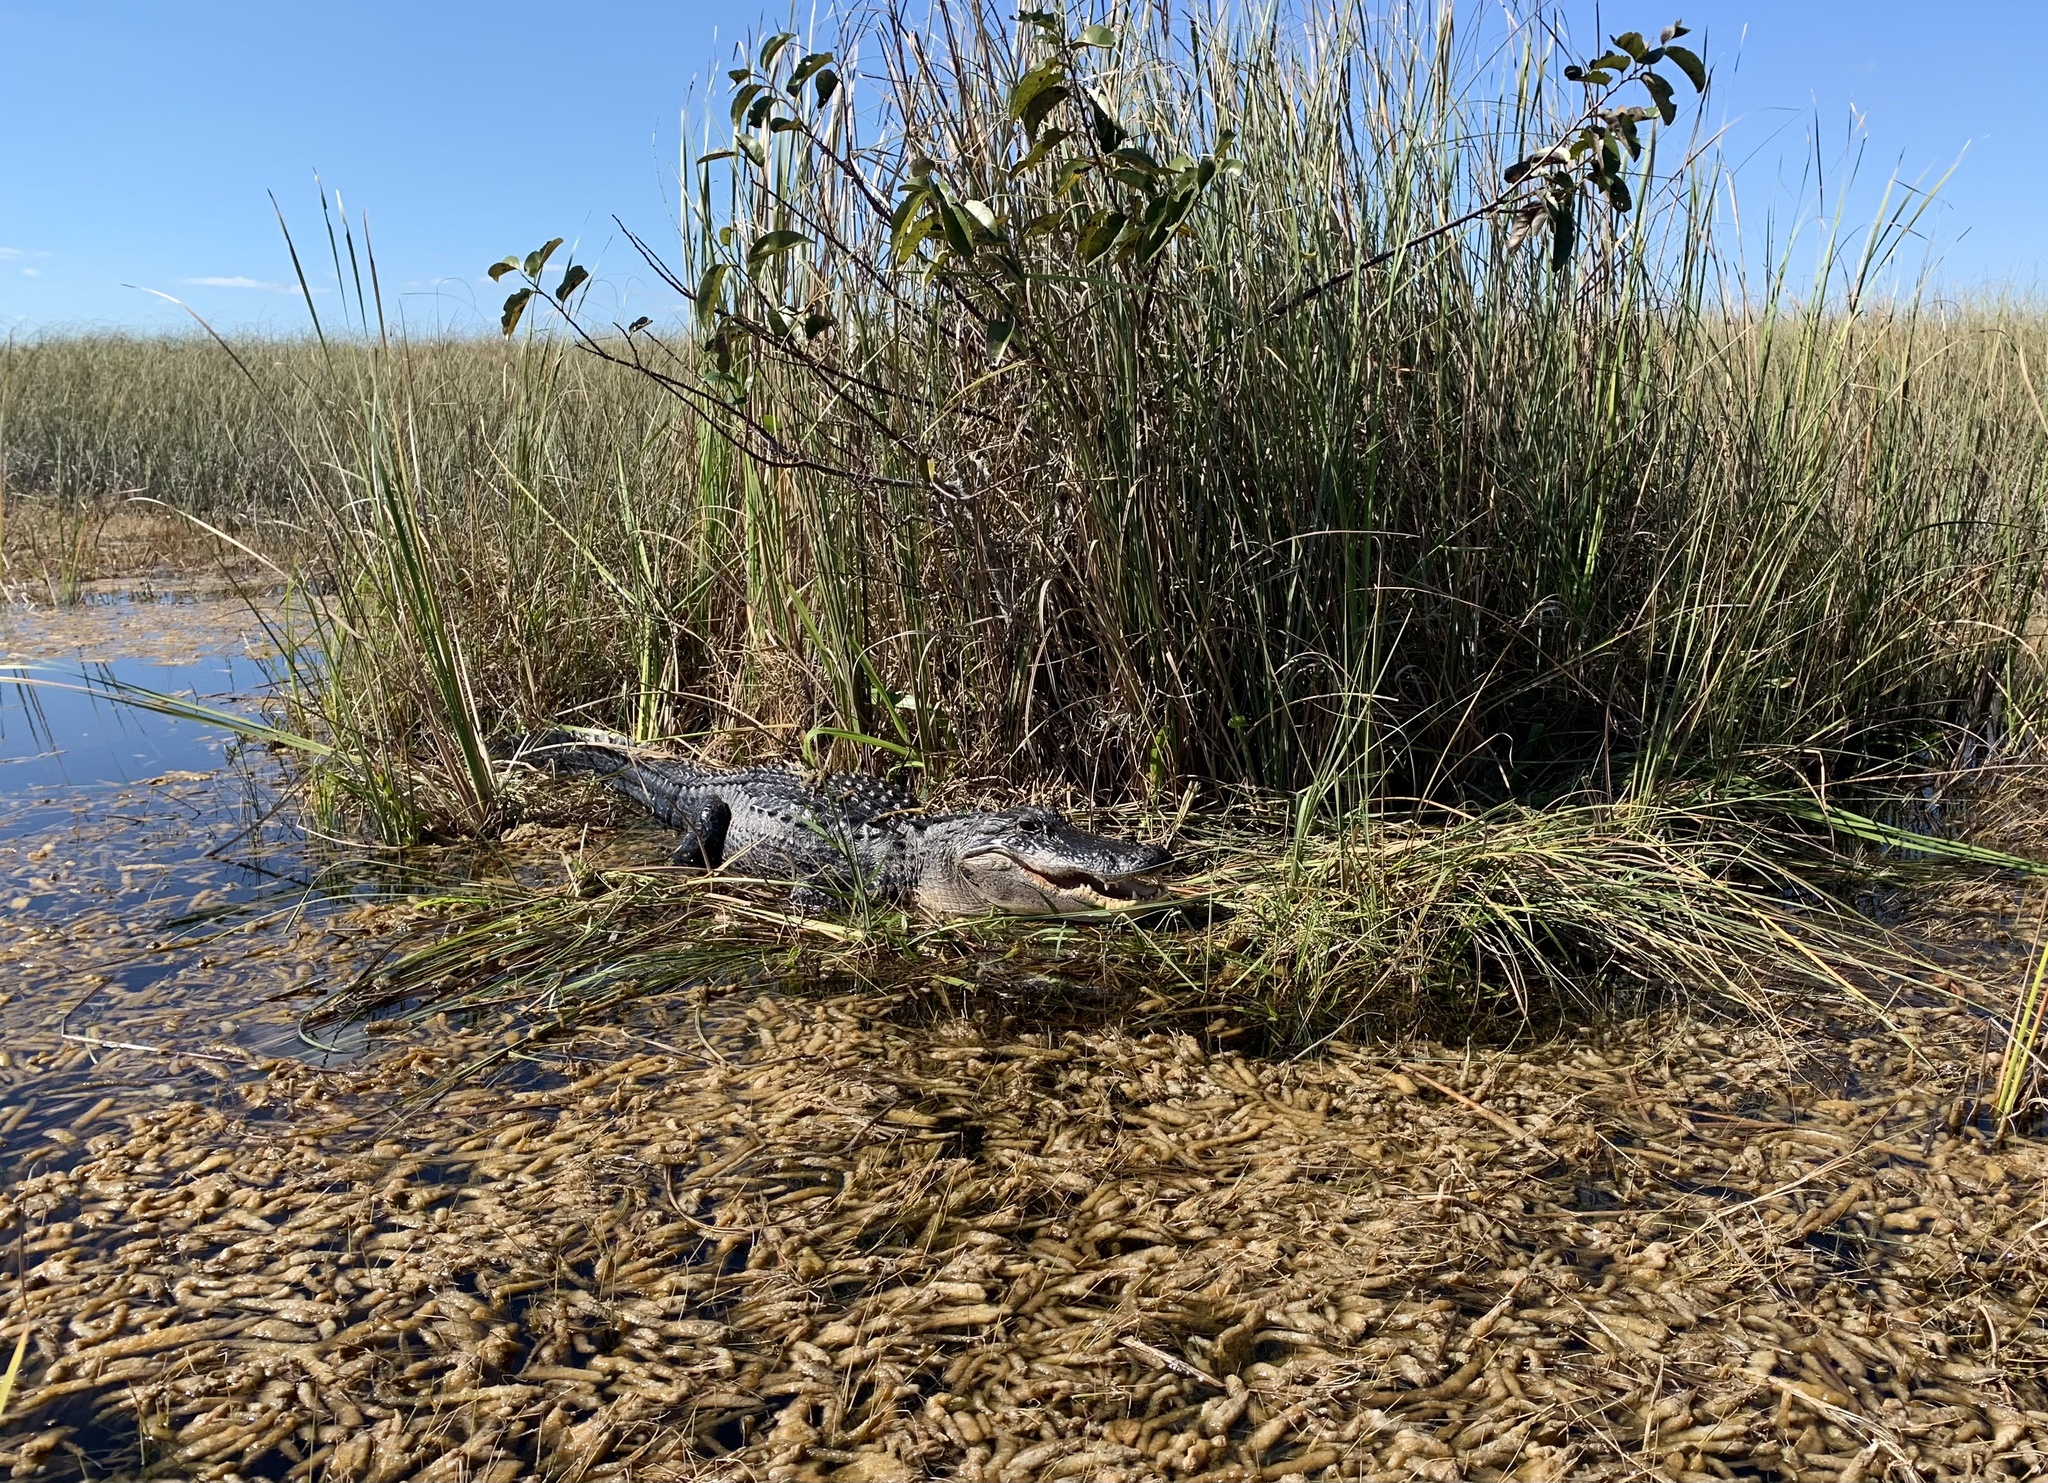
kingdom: Animalia
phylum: Chordata
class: Crocodylia
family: Alligatoridae
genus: Alligator
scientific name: Alligator mississippiensis
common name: American alligator
